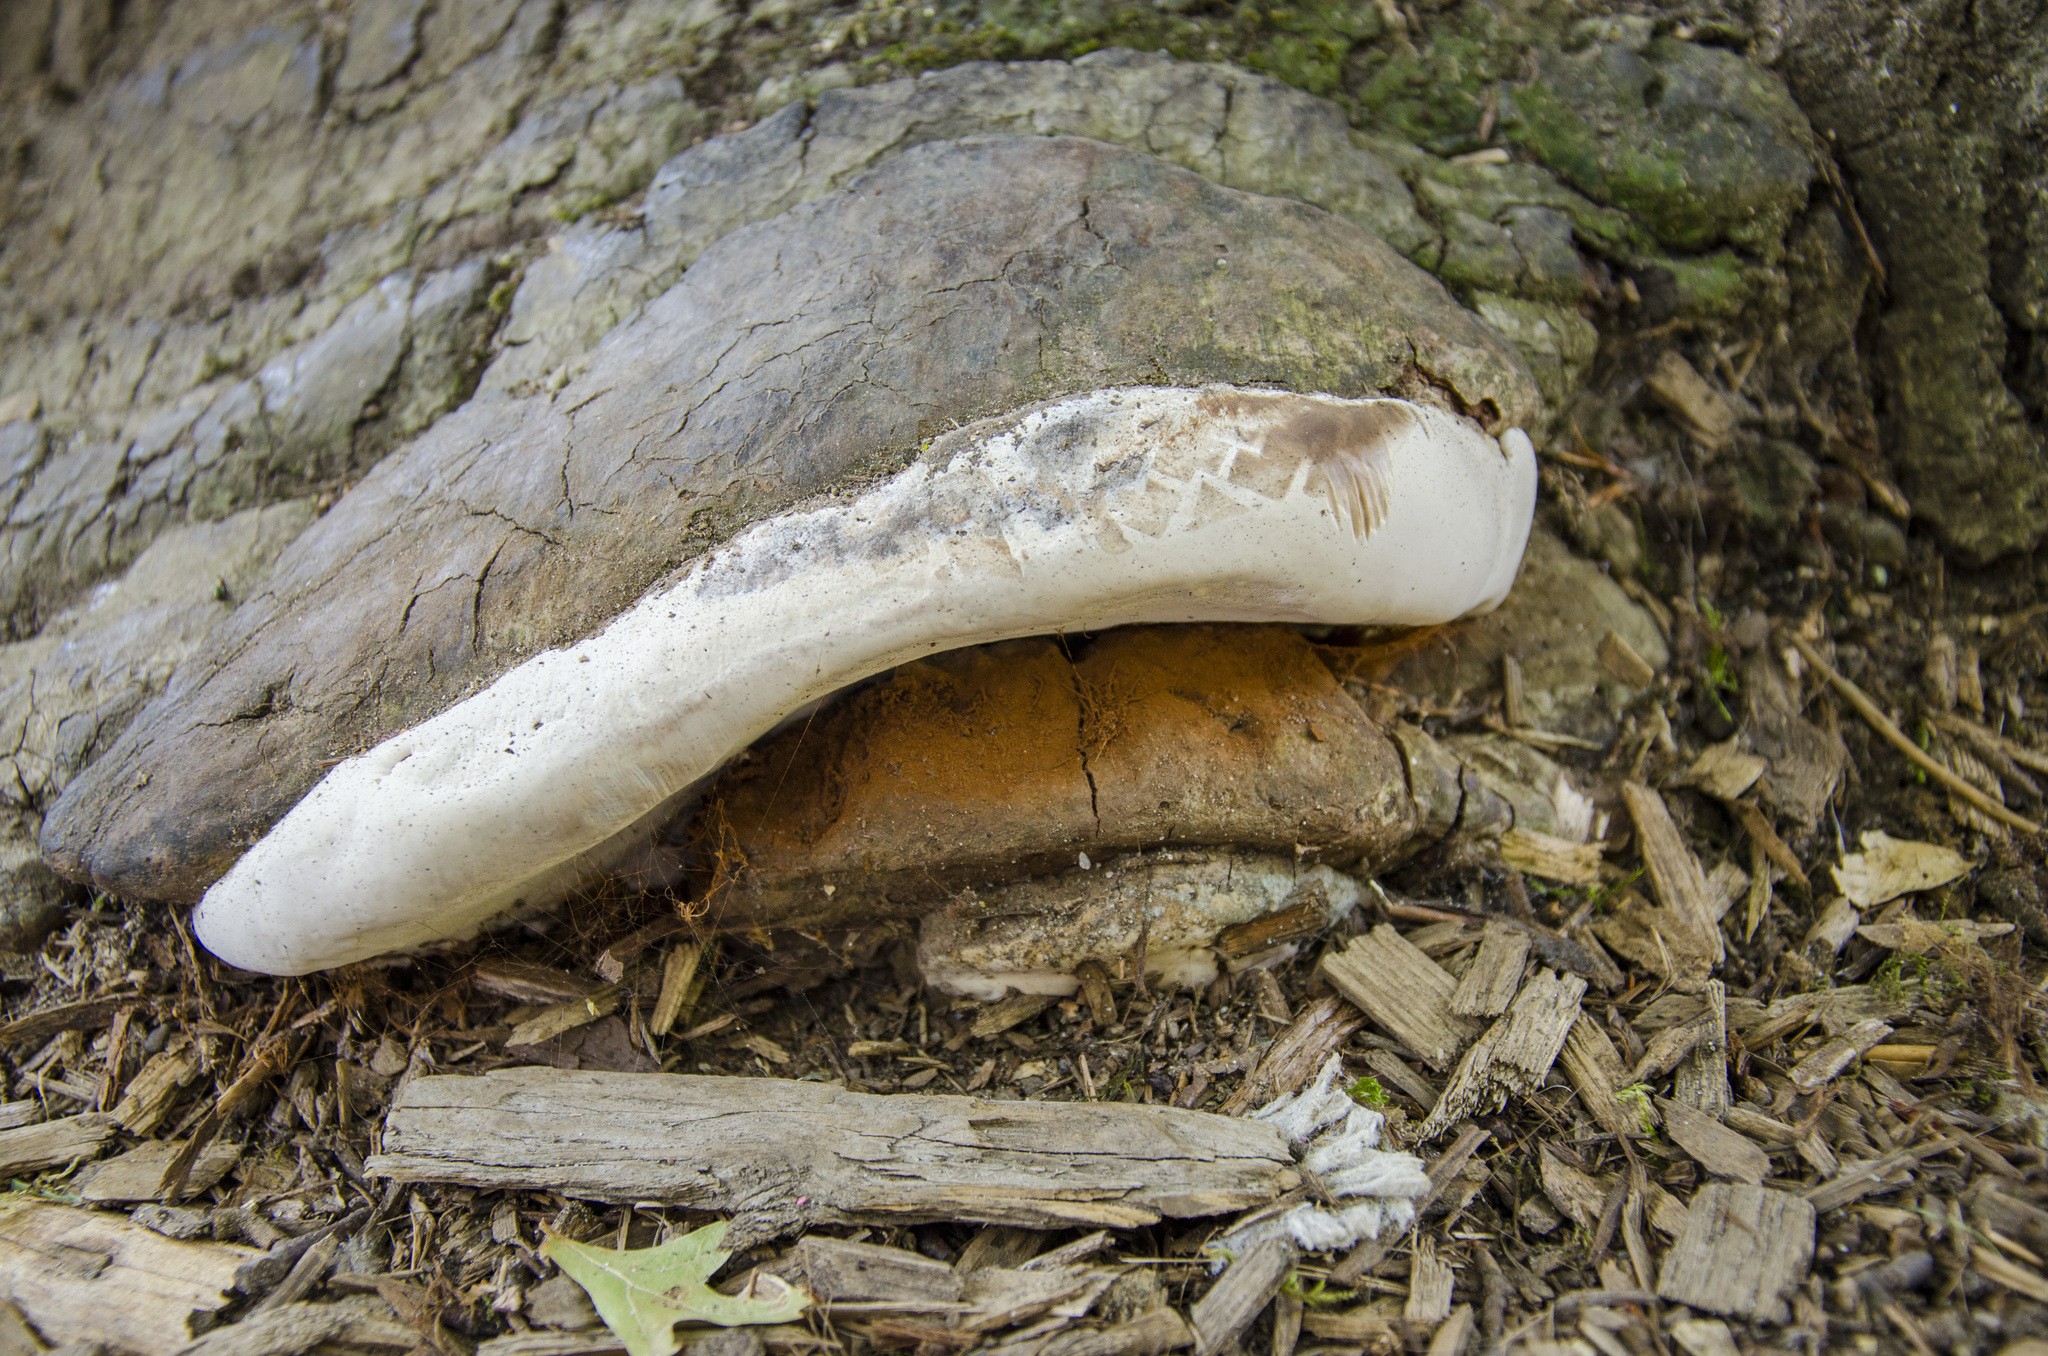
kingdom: Fungi
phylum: Basidiomycota
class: Agaricomycetes
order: Polyporales
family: Polyporaceae
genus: Ganoderma
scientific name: Ganoderma applanatum
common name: Artist's bracket
